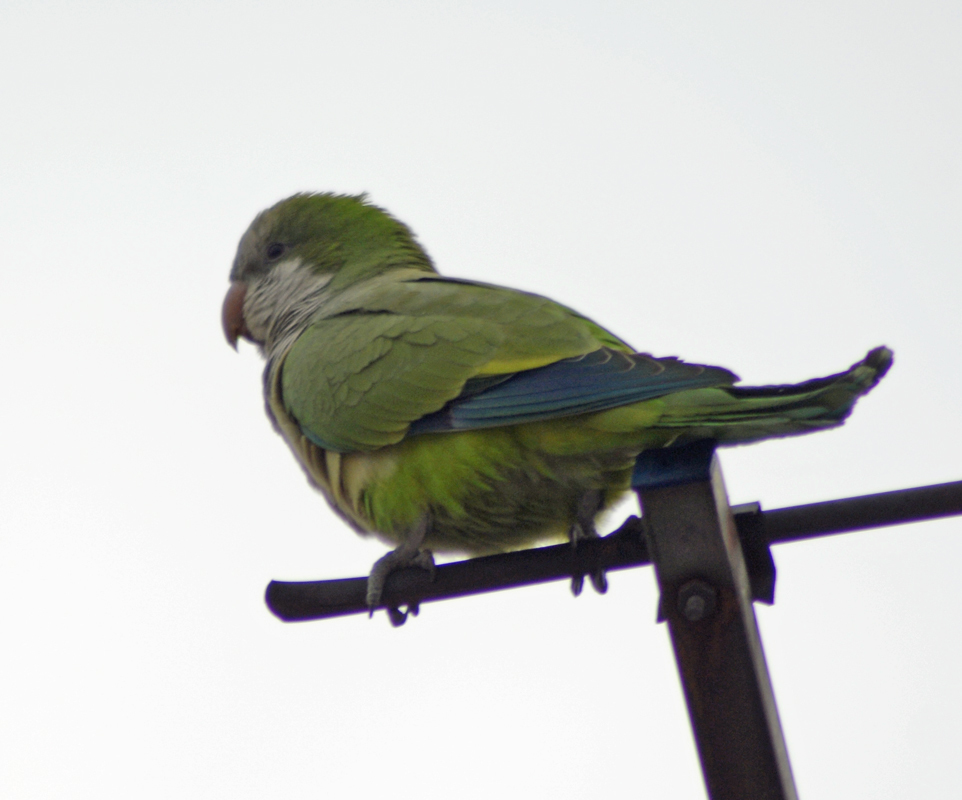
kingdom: Animalia
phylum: Chordata
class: Aves
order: Psittaciformes
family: Psittacidae
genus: Myiopsitta
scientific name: Myiopsitta monachus
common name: Monk parakeet
